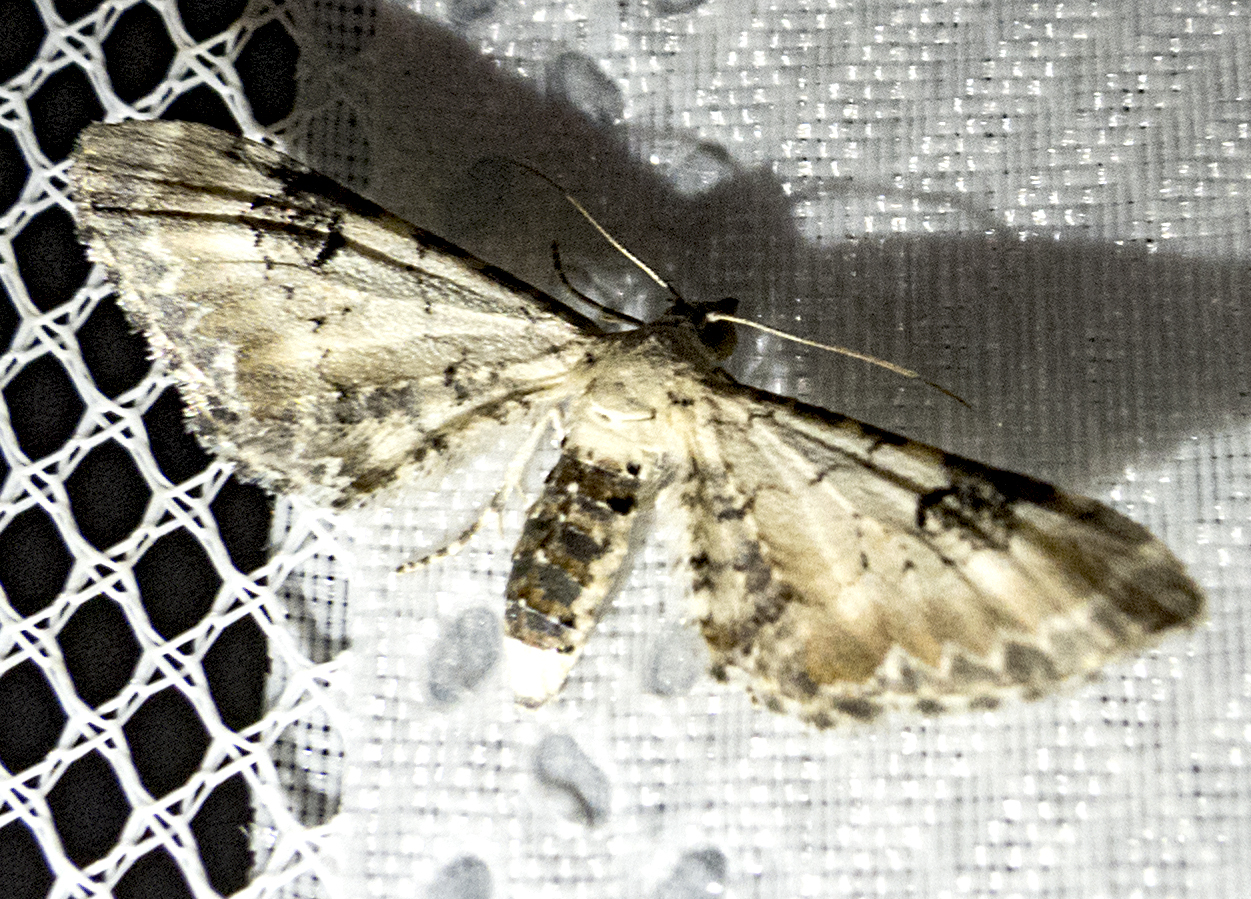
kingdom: Animalia
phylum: Arthropoda
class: Insecta
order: Lepidoptera
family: Geometridae
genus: Eupithecia
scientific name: Eupithecia centaureata
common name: Lime-speck pug
